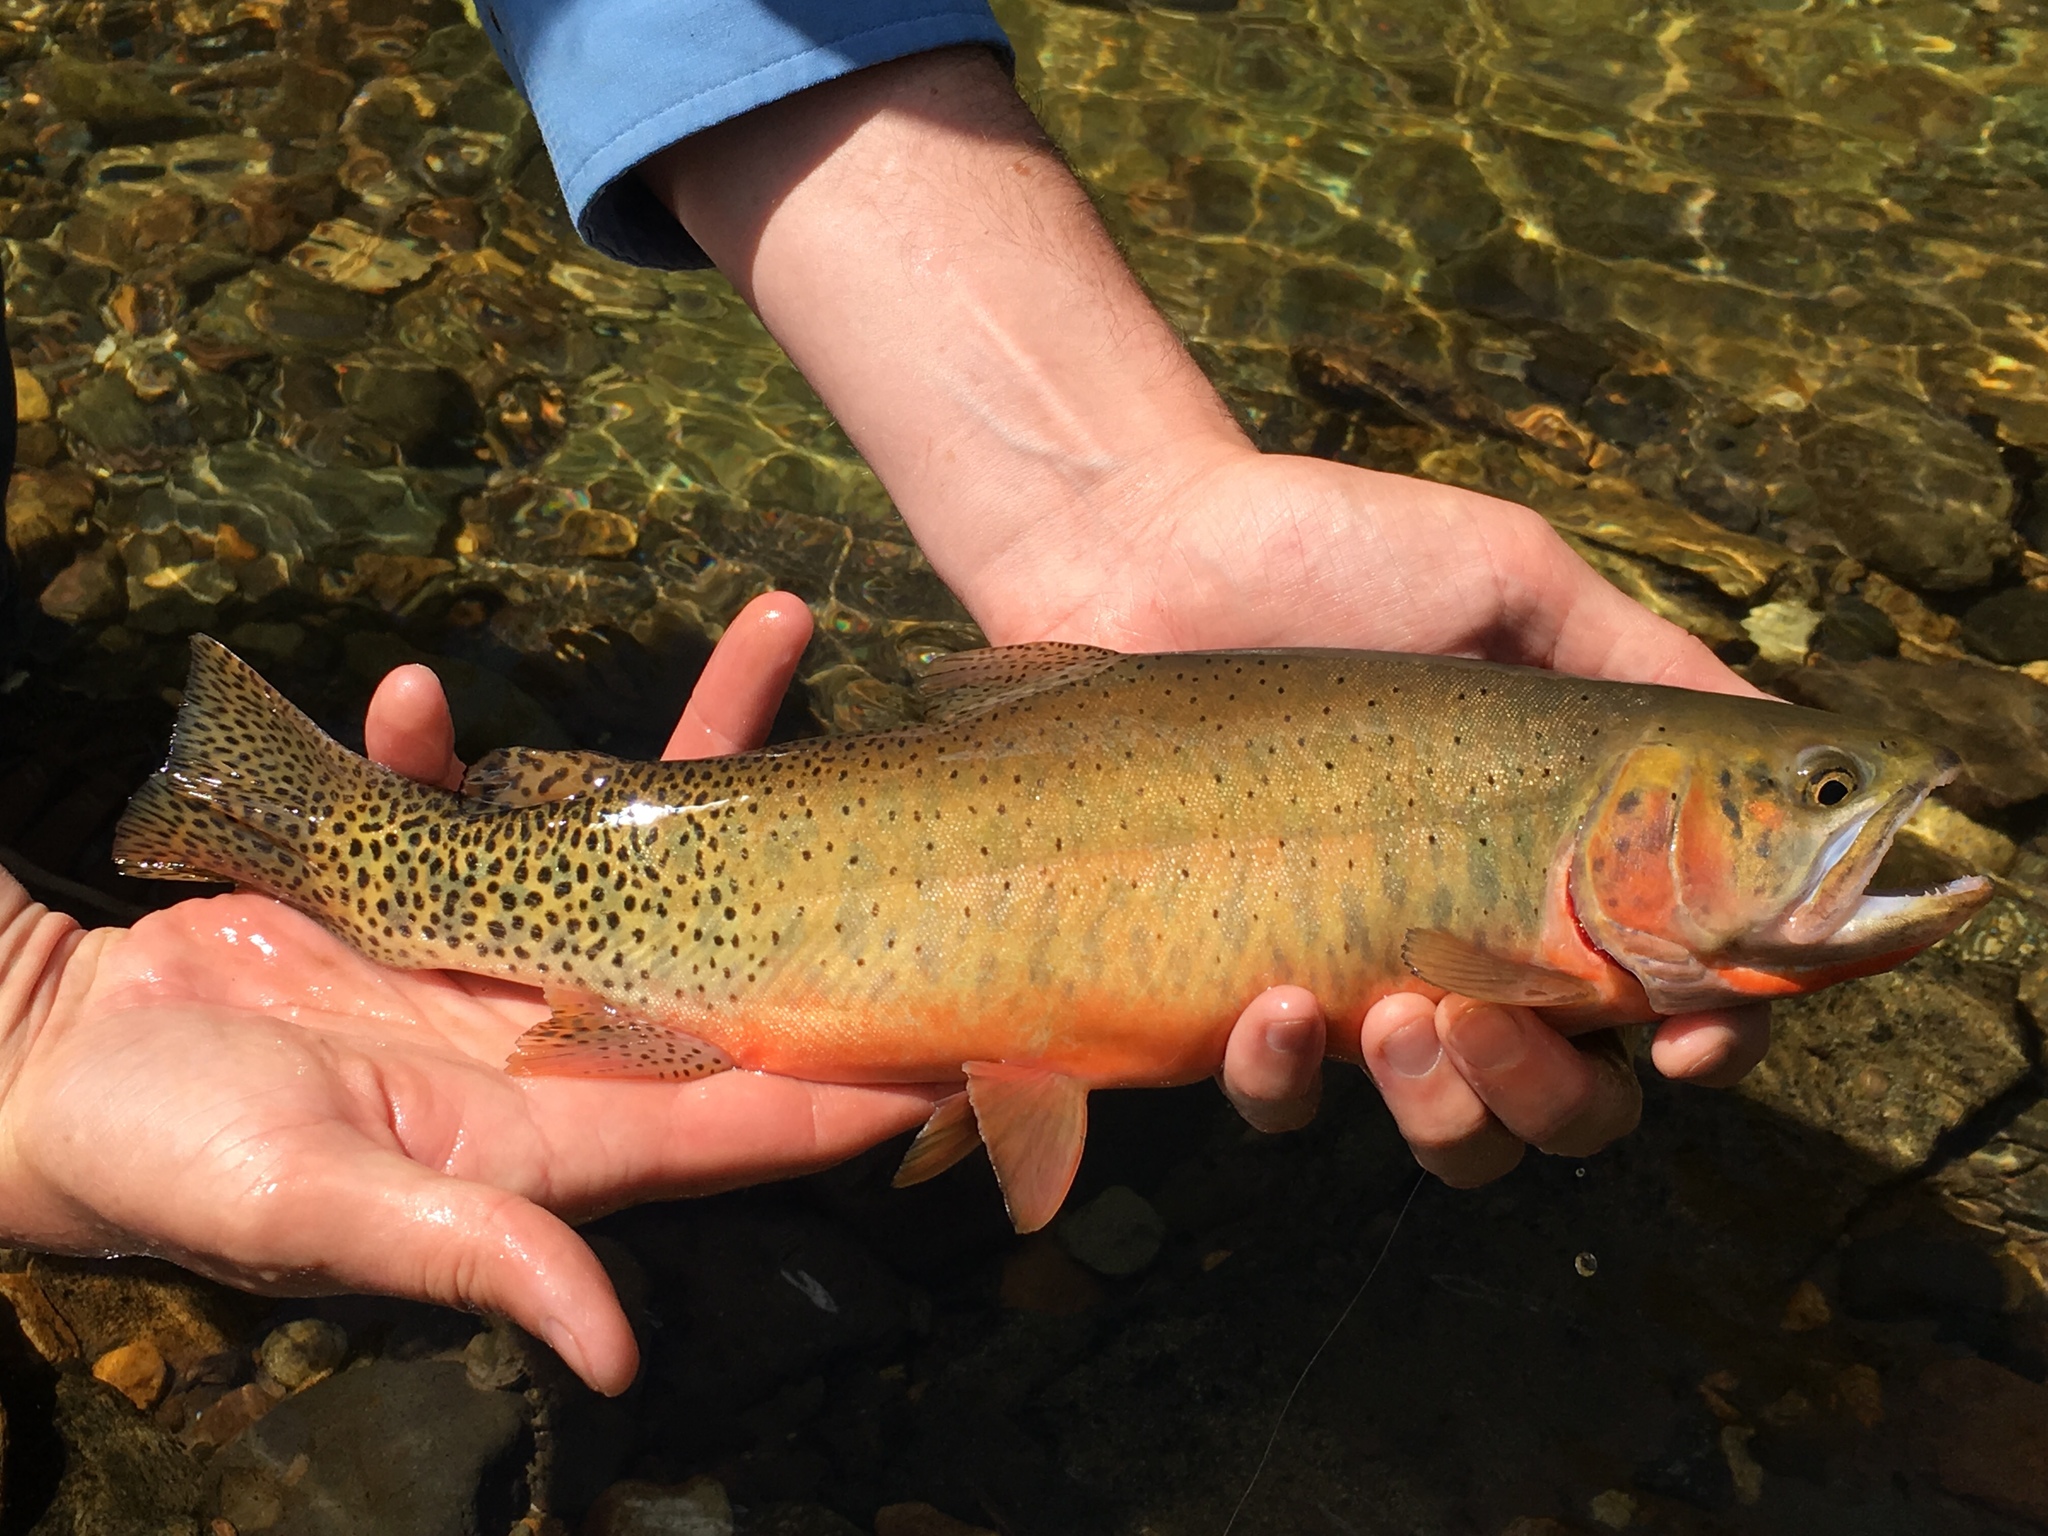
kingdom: Animalia
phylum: Chordata
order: Salmoniformes
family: Salmonidae
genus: Oncorhynchus
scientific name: Oncorhynchus virginalis
